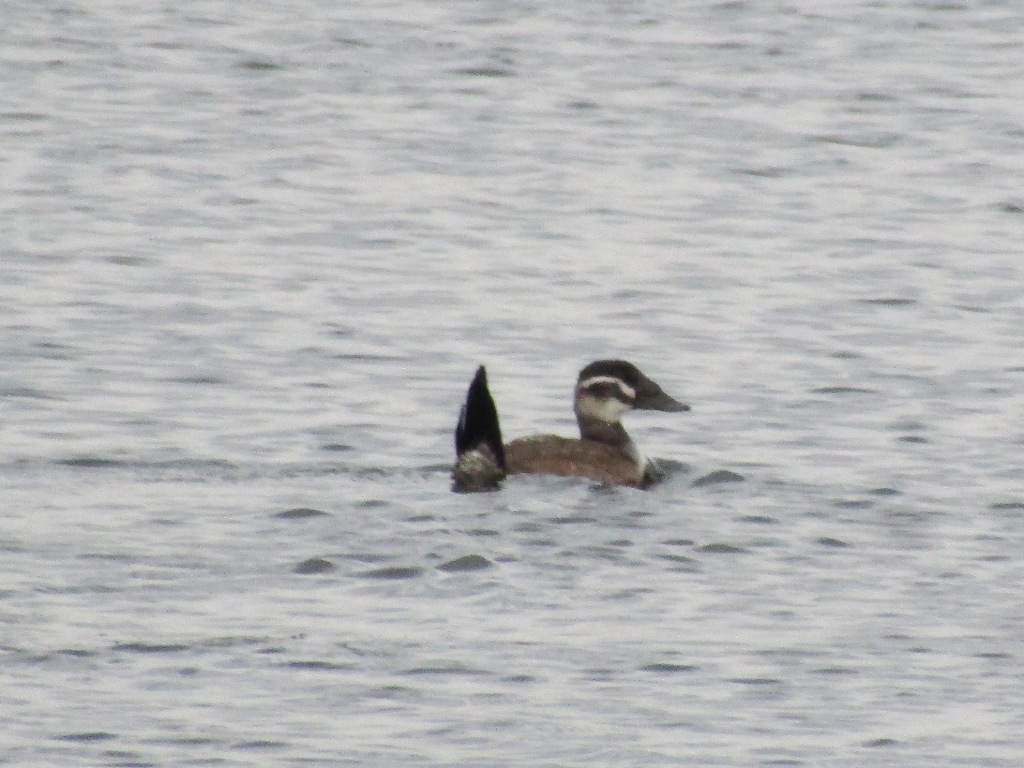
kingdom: Animalia
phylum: Chordata
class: Aves
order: Anseriformes
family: Anatidae
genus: Oxyura
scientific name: Oxyura leucocephala
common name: White-headed duck
